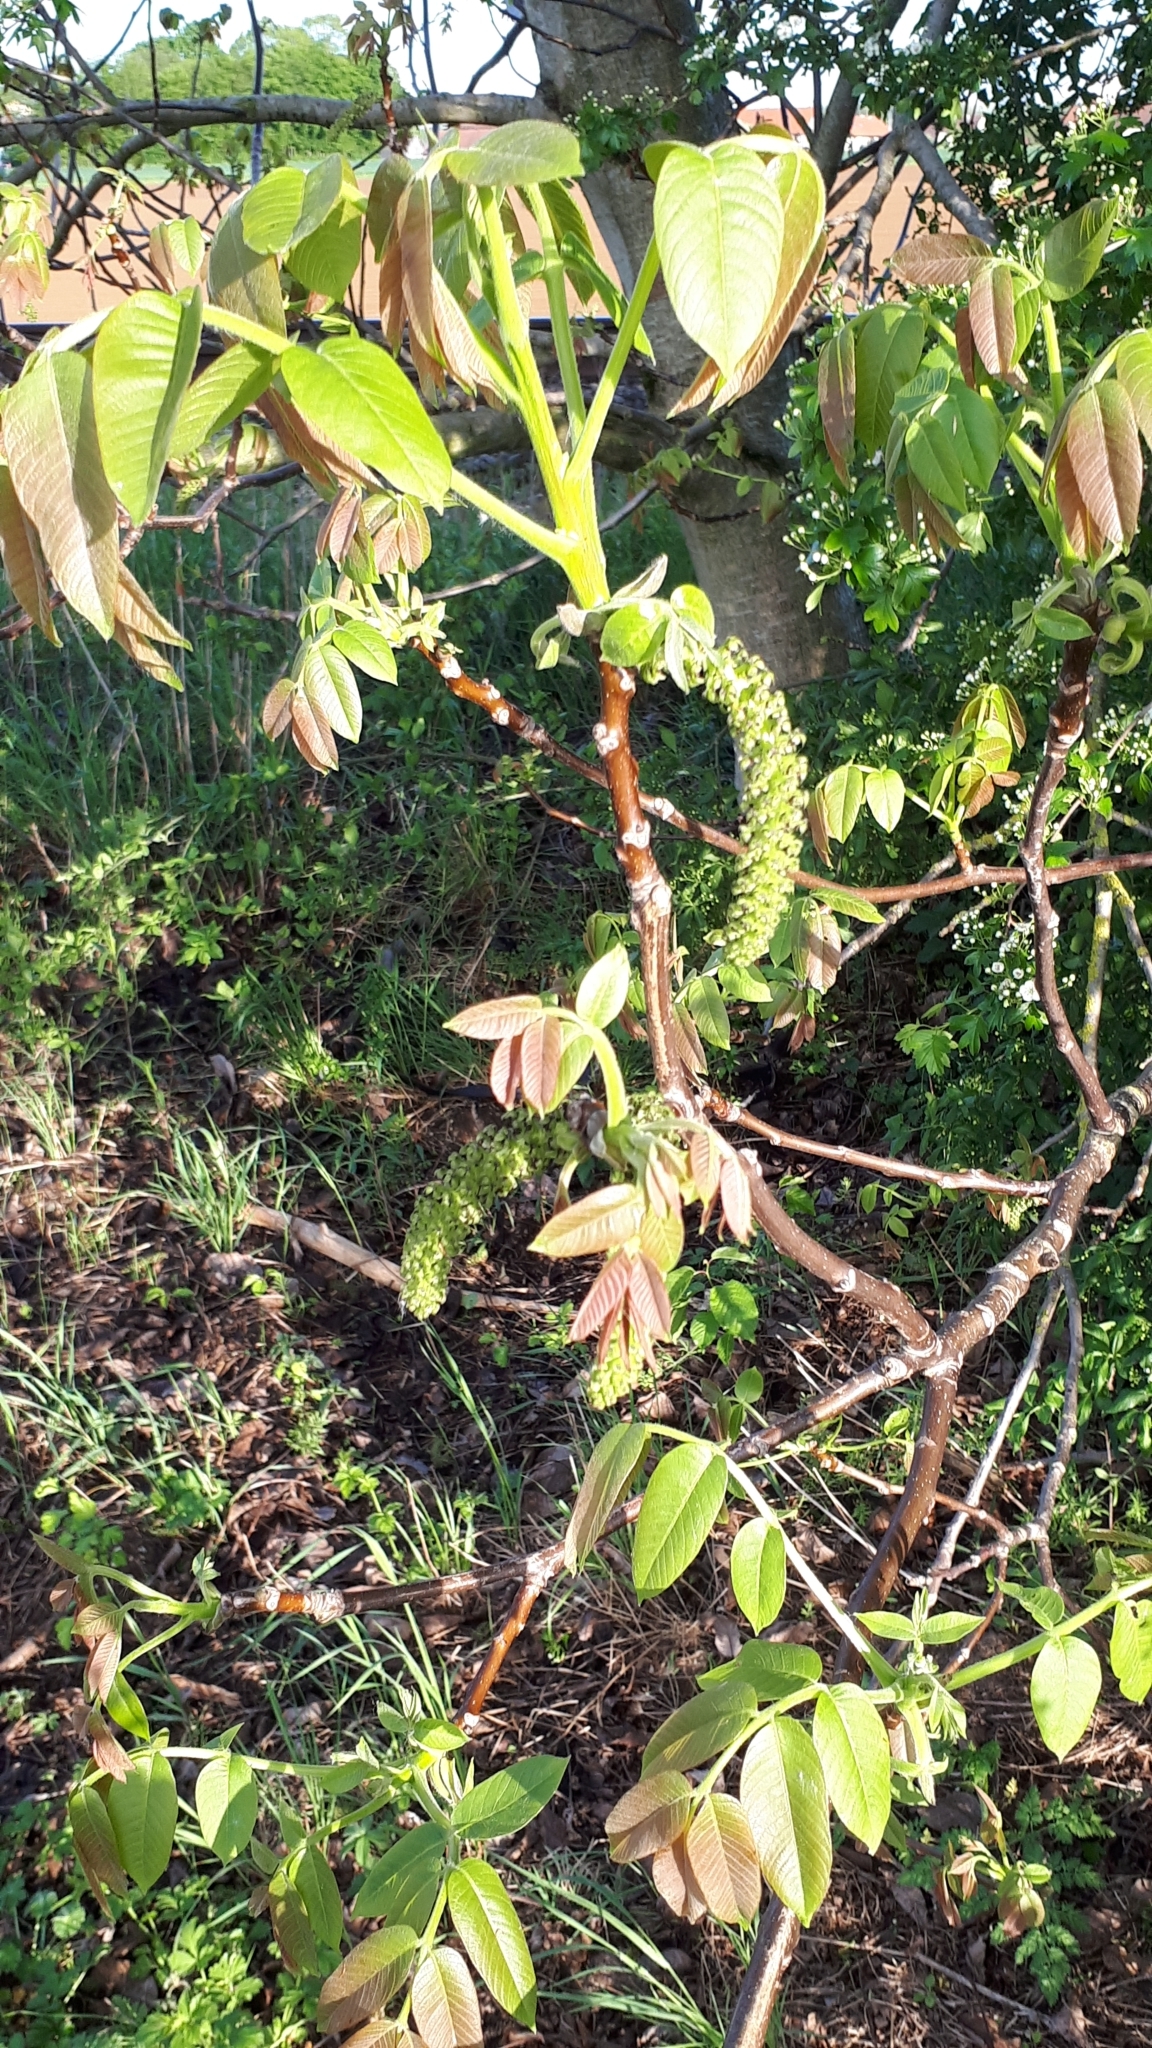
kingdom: Plantae
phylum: Tracheophyta
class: Magnoliopsida
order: Fagales
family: Juglandaceae
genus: Juglans
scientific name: Juglans regia
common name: Walnut
